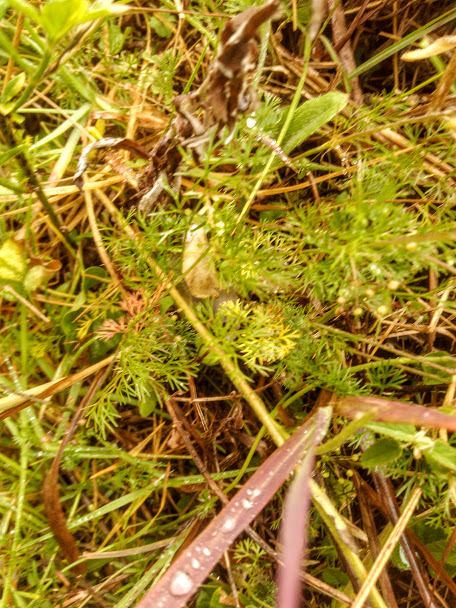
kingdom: Plantae
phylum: Tracheophyta
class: Magnoliopsida
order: Apiales
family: Apiaceae
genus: Cyclospermum
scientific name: Cyclospermum leptophyllum
